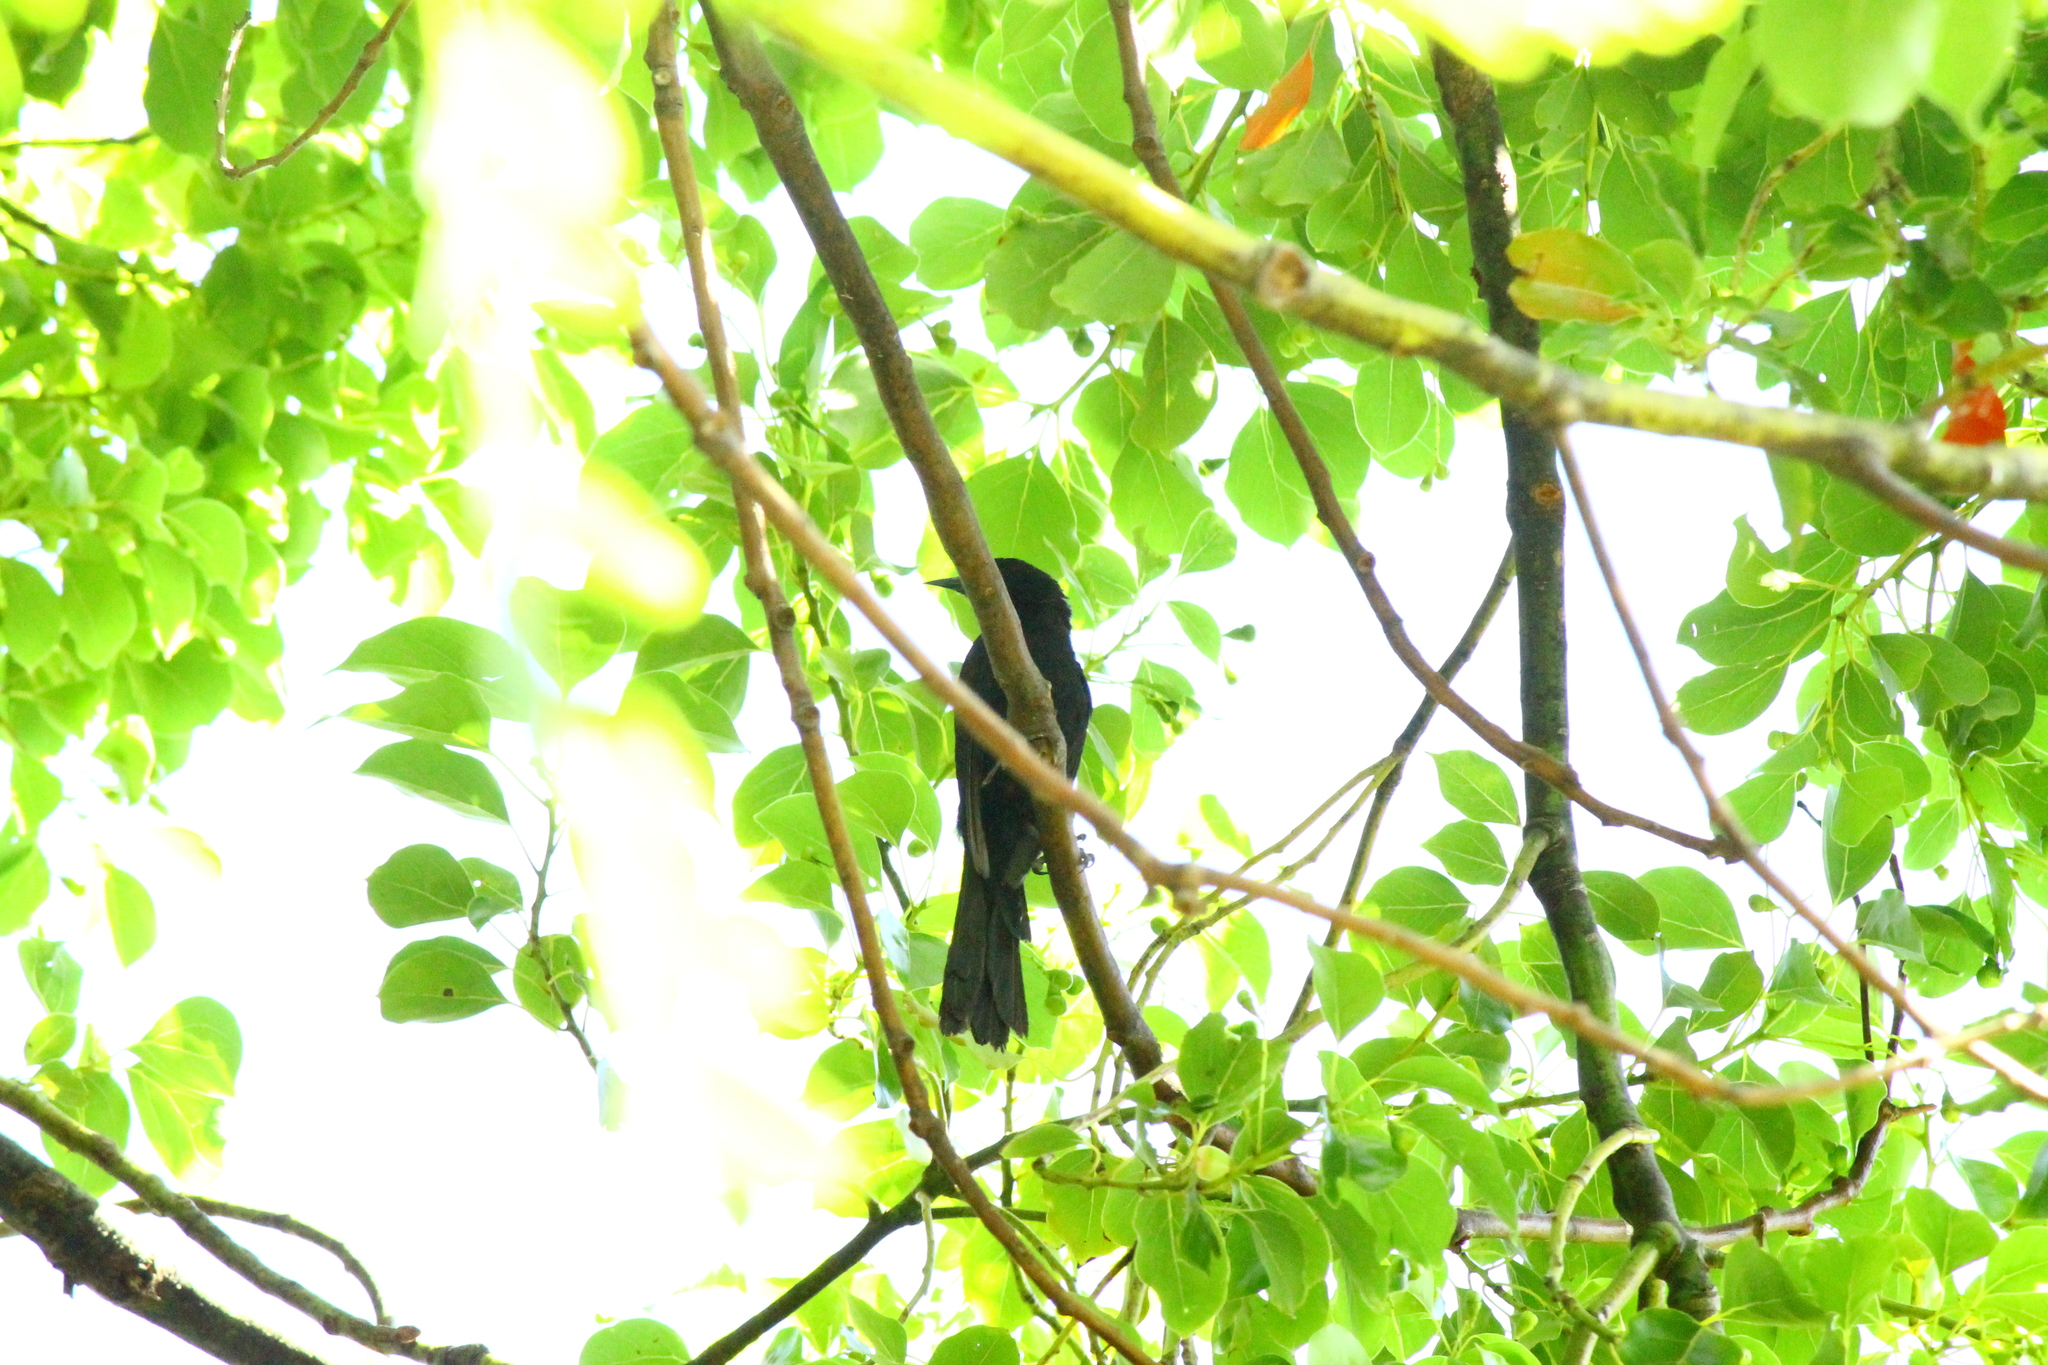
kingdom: Animalia
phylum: Chordata
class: Aves
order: Passeriformes
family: Icteridae
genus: Icterus
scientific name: Icterus cayanensis
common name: Epaulet oriole
